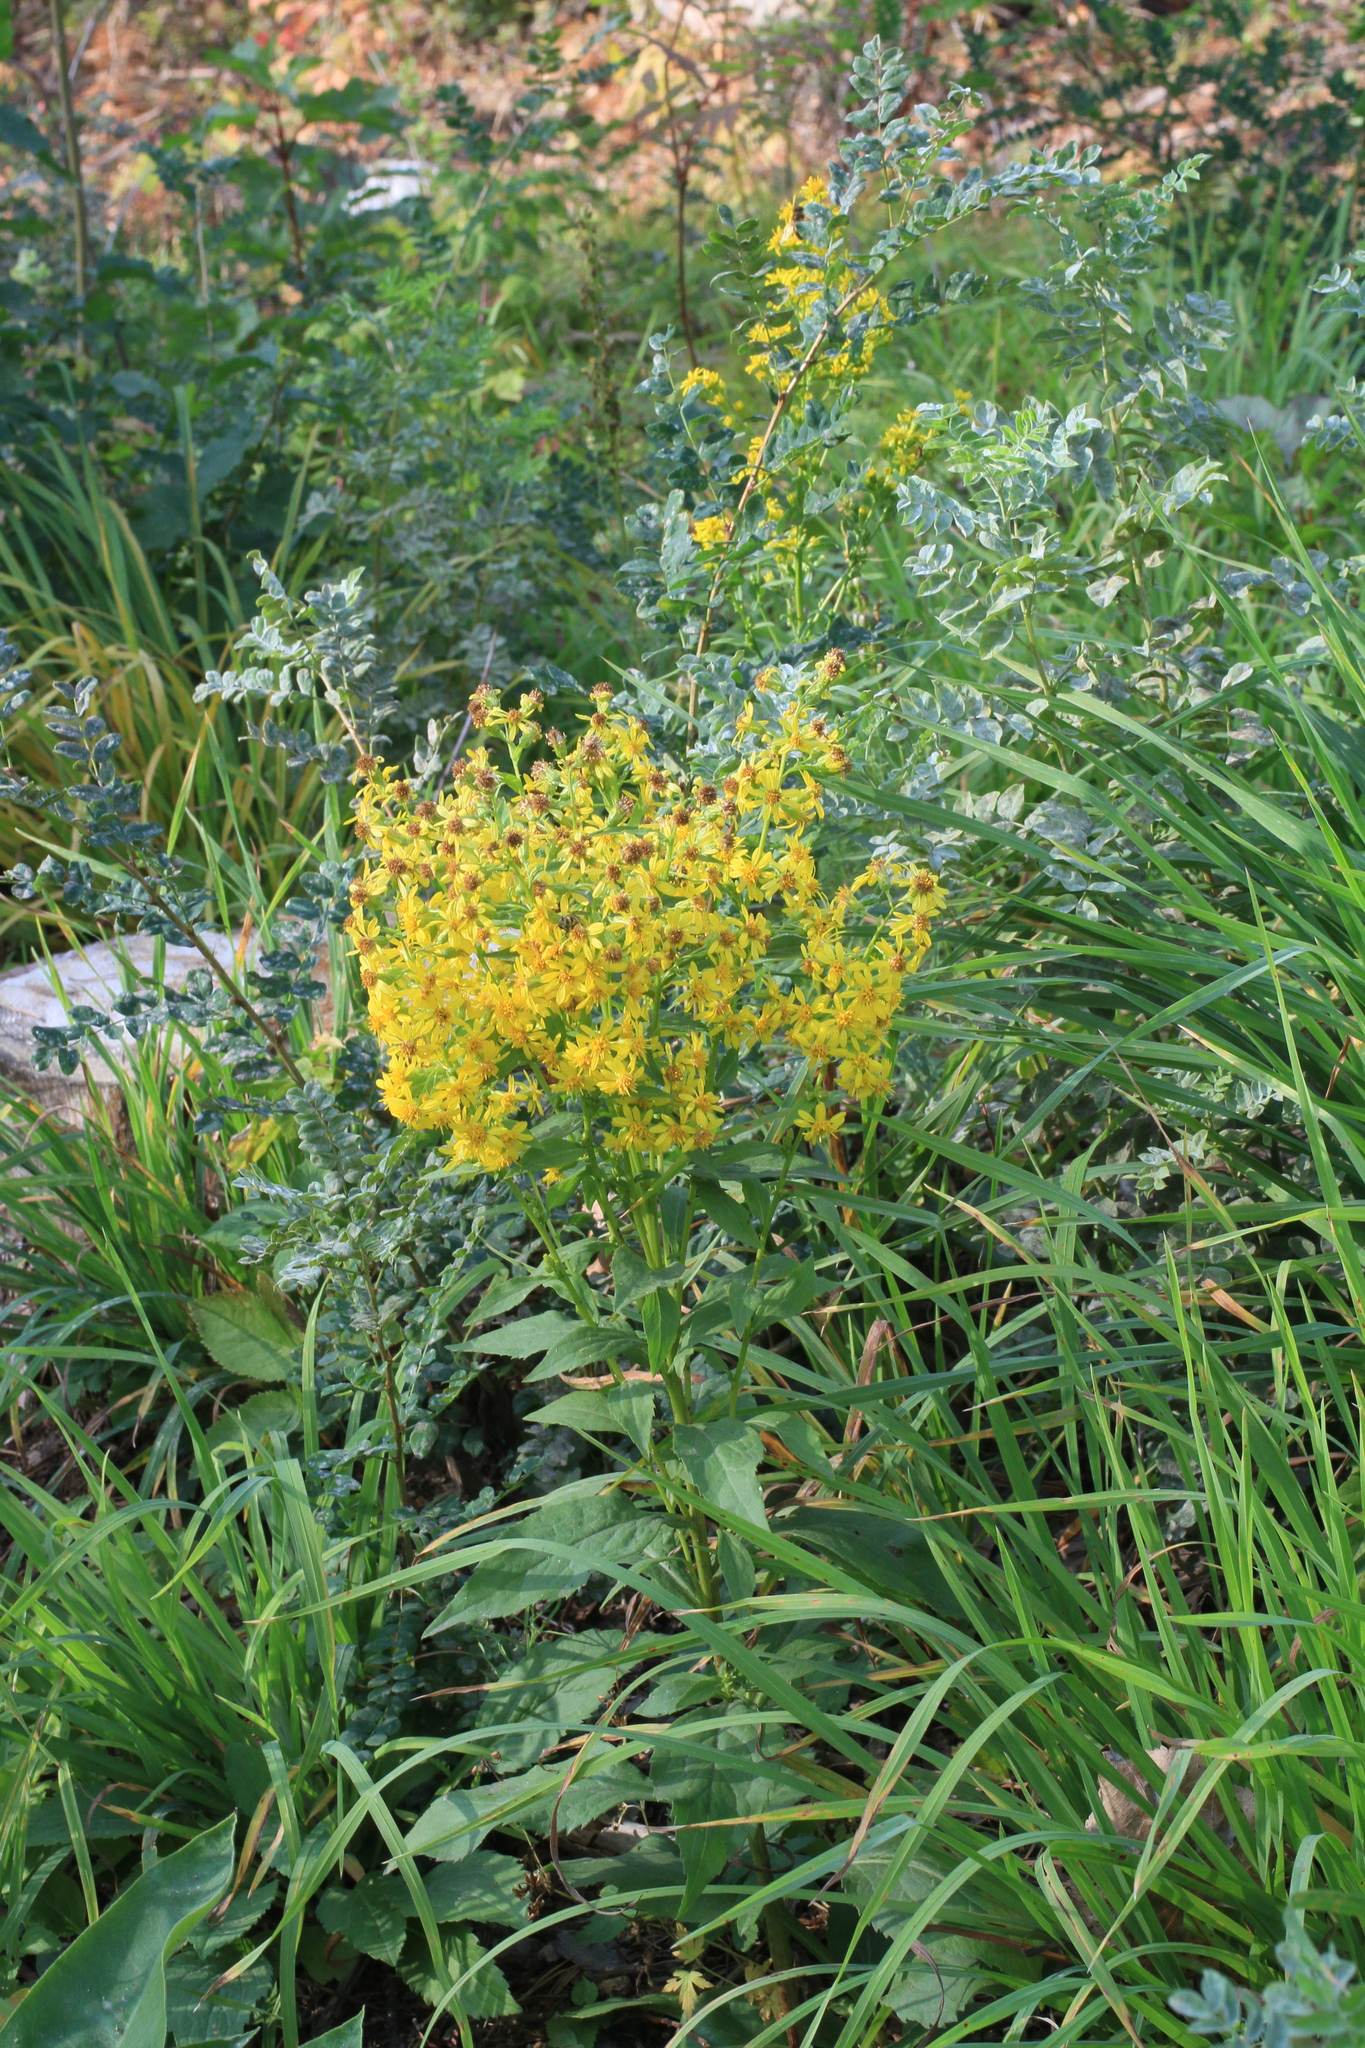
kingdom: Plantae
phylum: Tracheophyta
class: Magnoliopsida
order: Asterales
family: Asteraceae
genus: Solidago
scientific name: Solidago virgaurea
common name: Goldenrod
